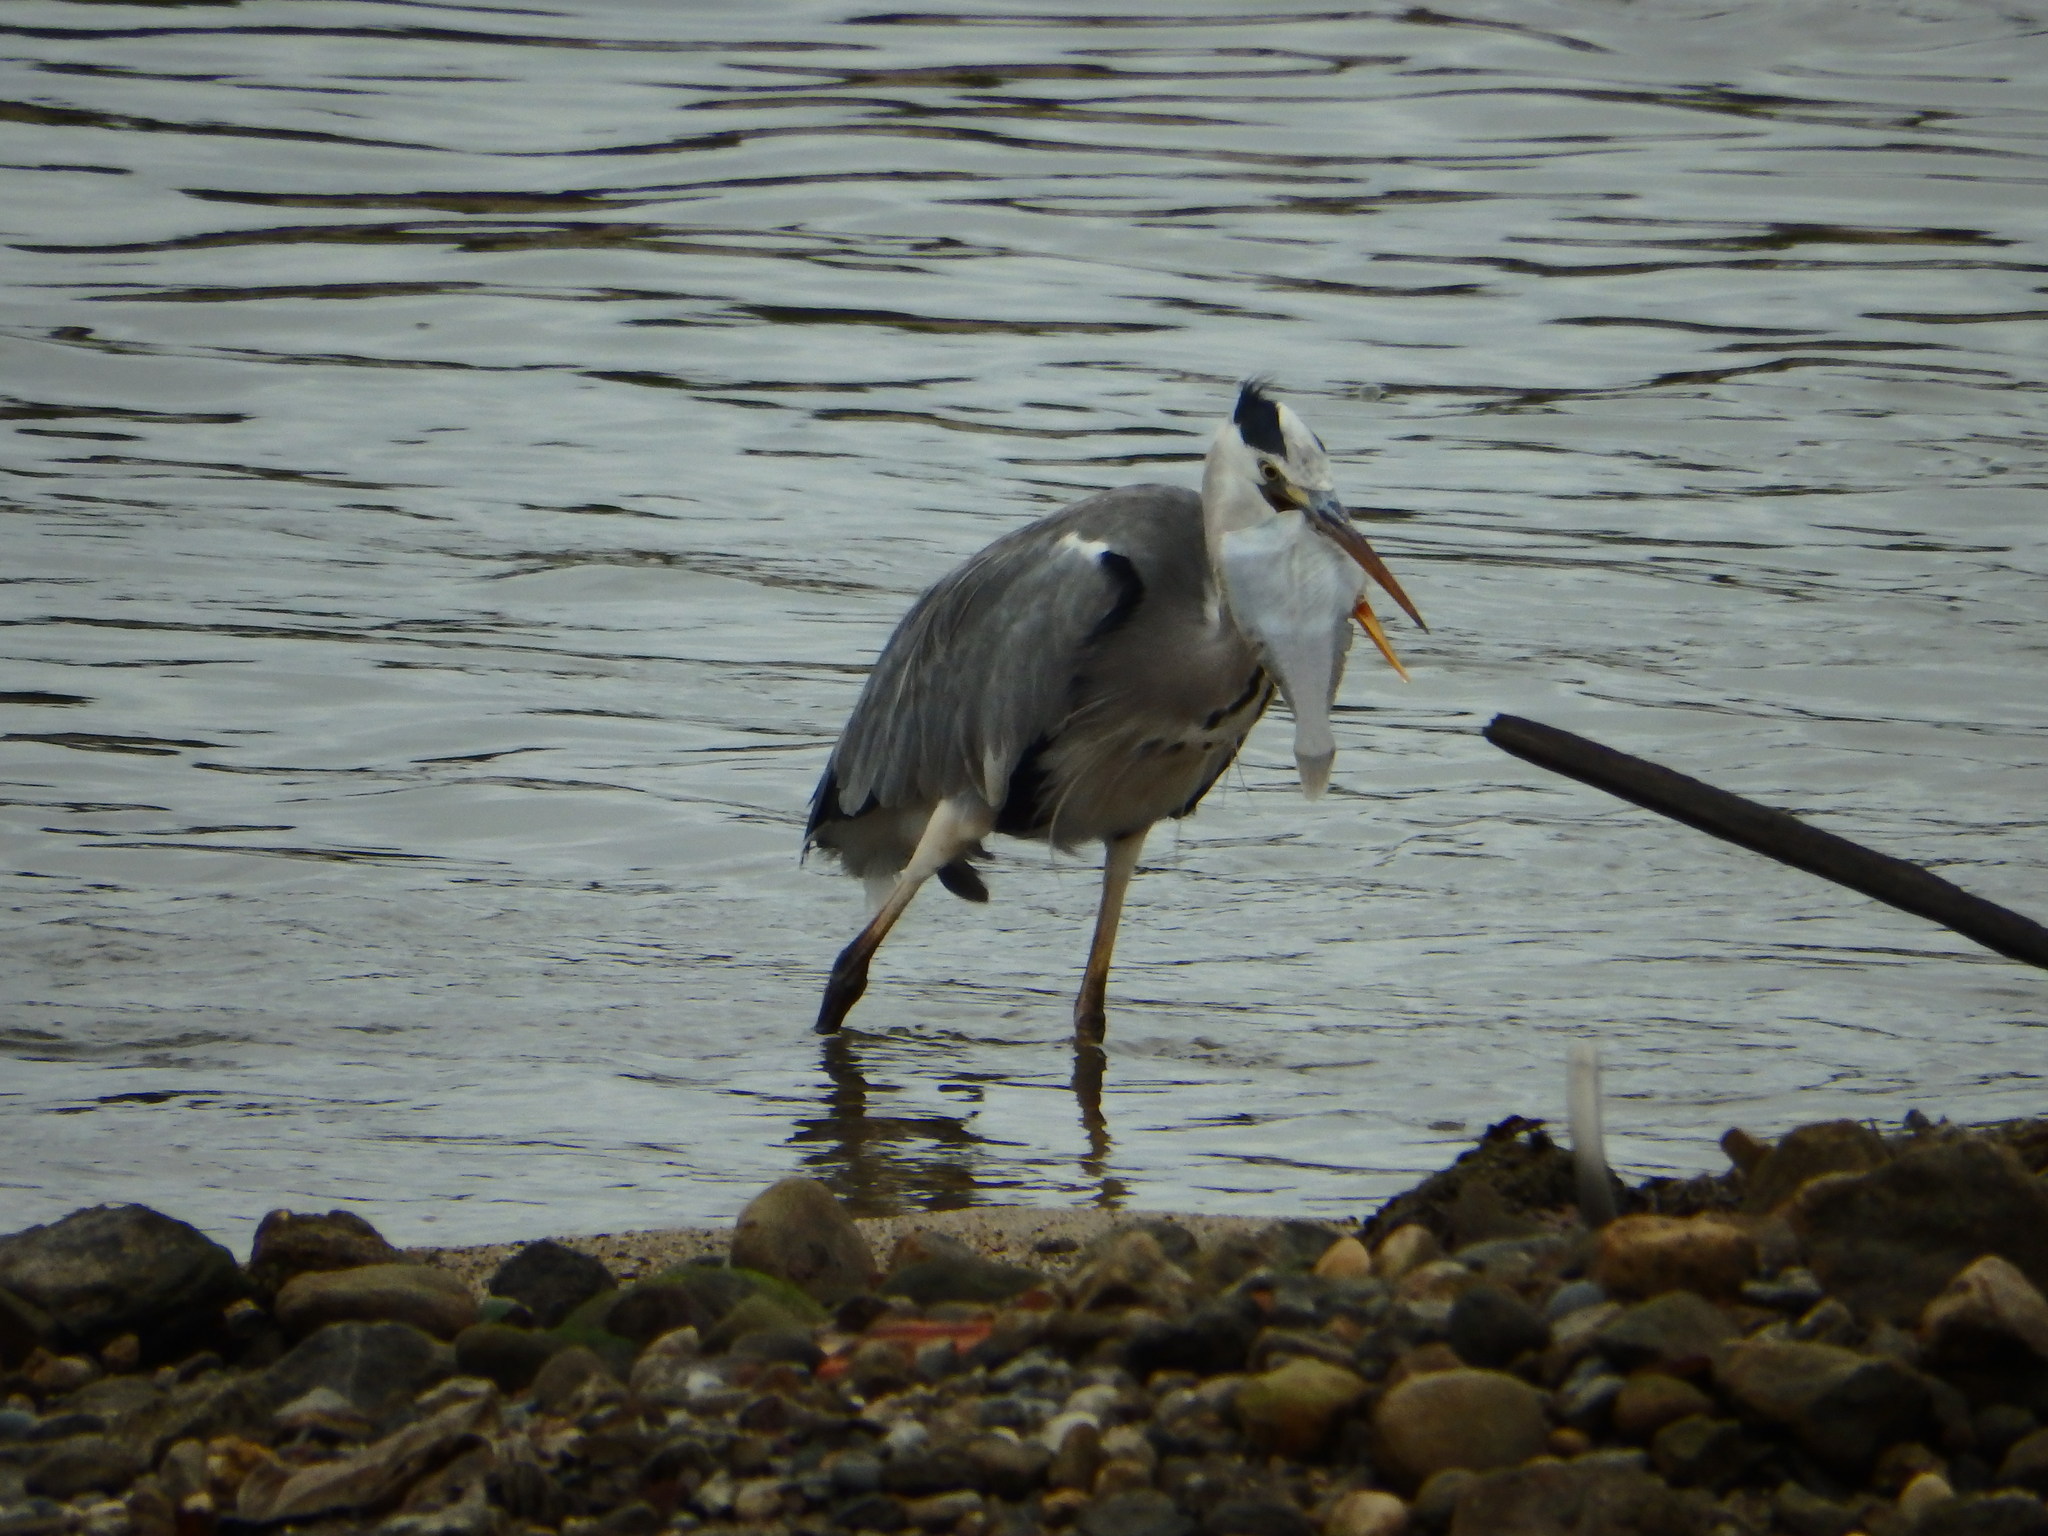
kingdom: Animalia
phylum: Chordata
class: Aves
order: Pelecaniformes
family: Ardeidae
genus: Ardea
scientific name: Ardea cinerea
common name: Grey heron
